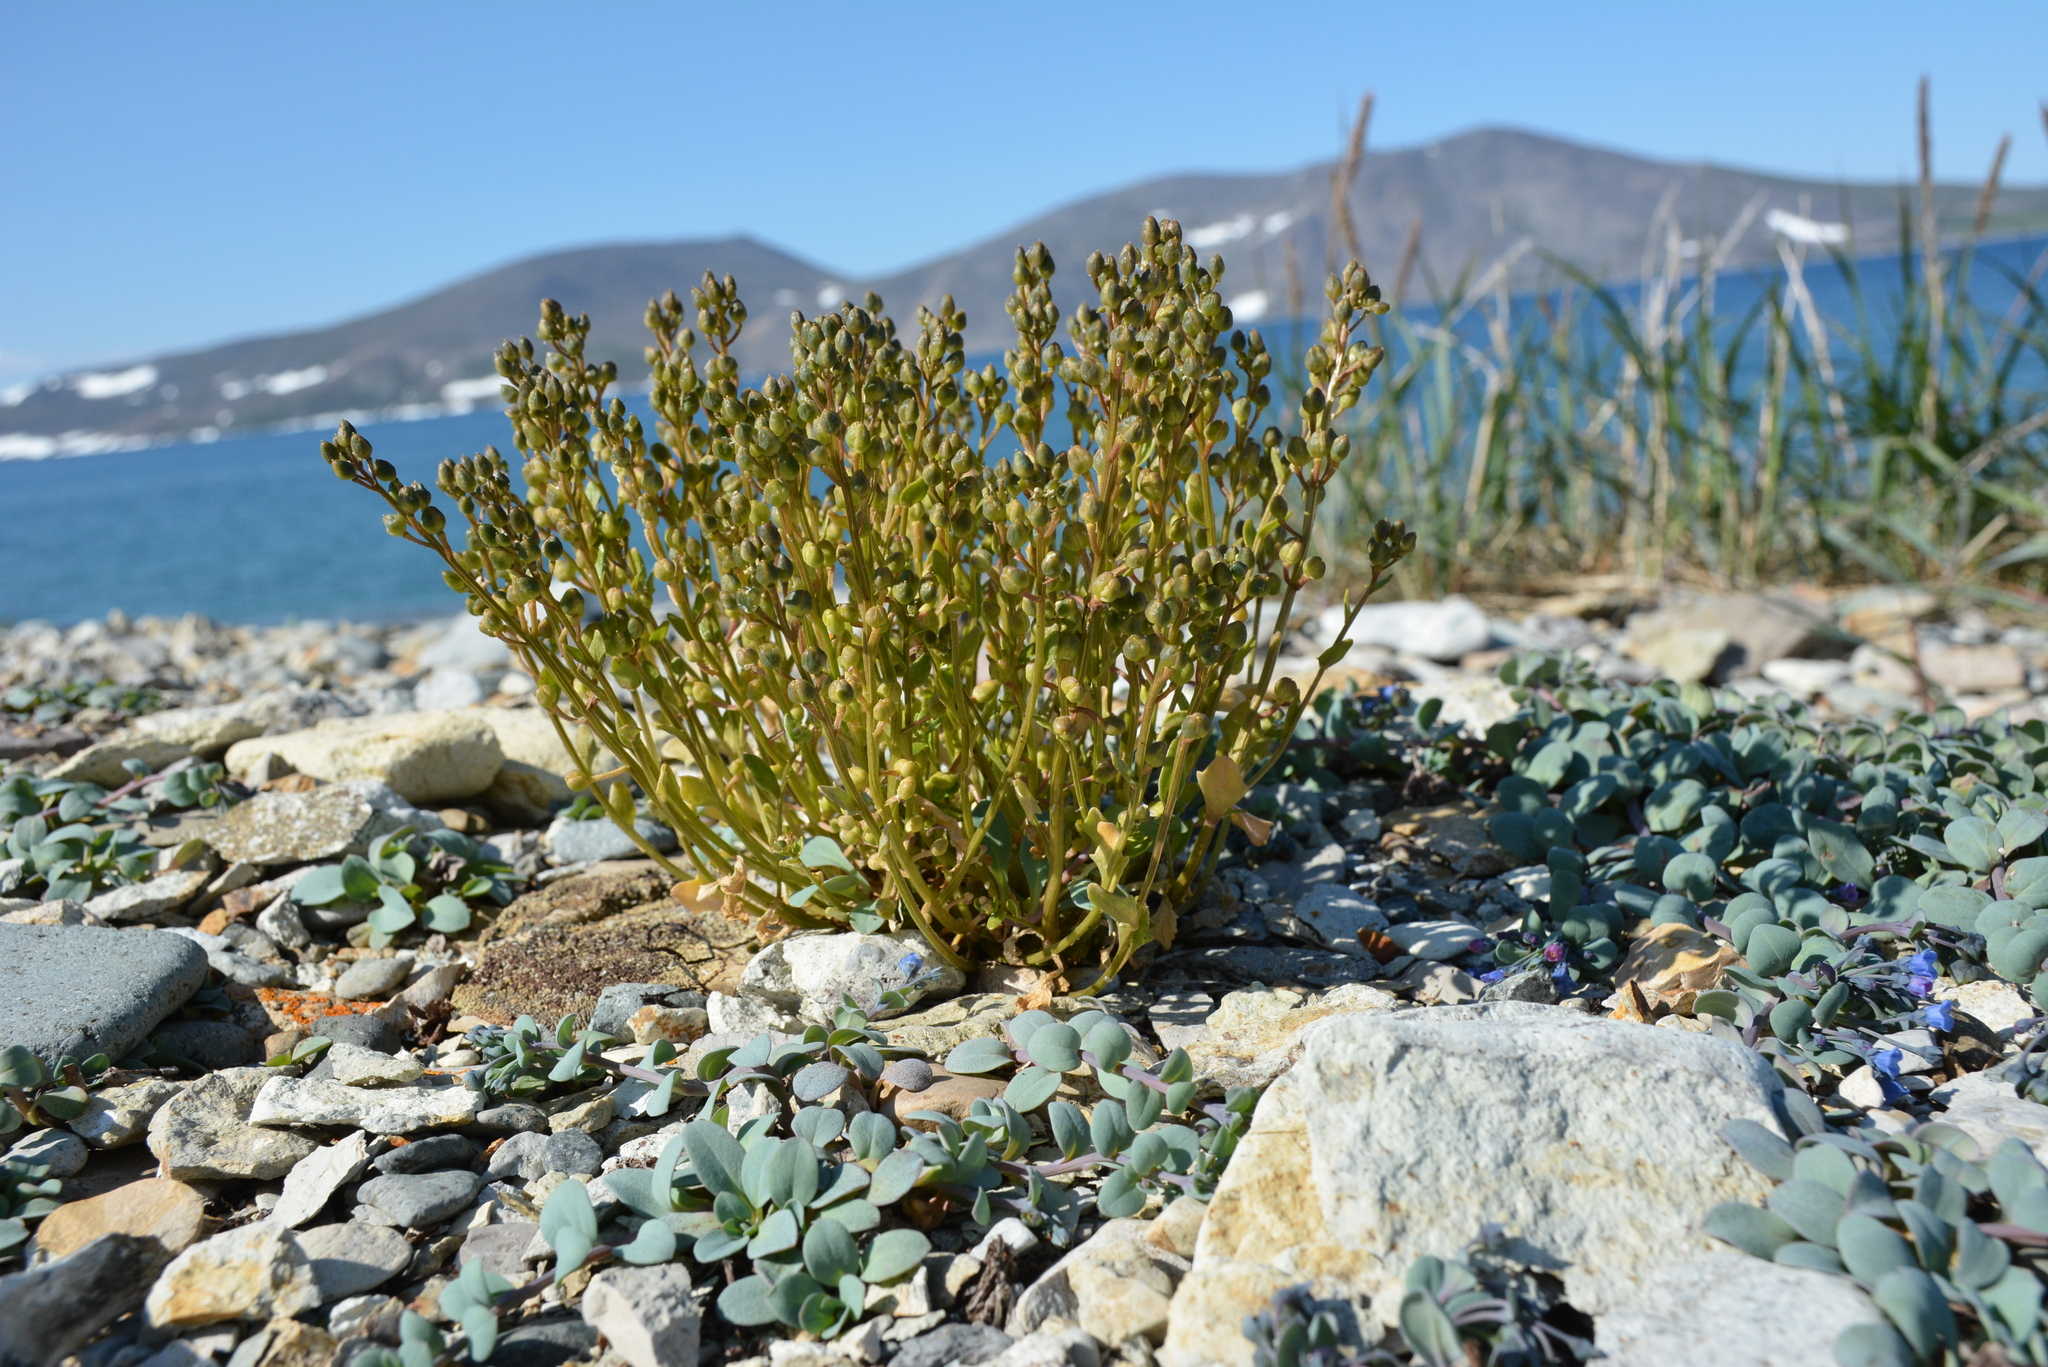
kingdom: Plantae
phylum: Tracheophyta
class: Magnoliopsida
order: Brassicales
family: Brassicaceae
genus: Cochlearia
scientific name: Cochlearia groenlandica
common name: Danish scurvygrass
